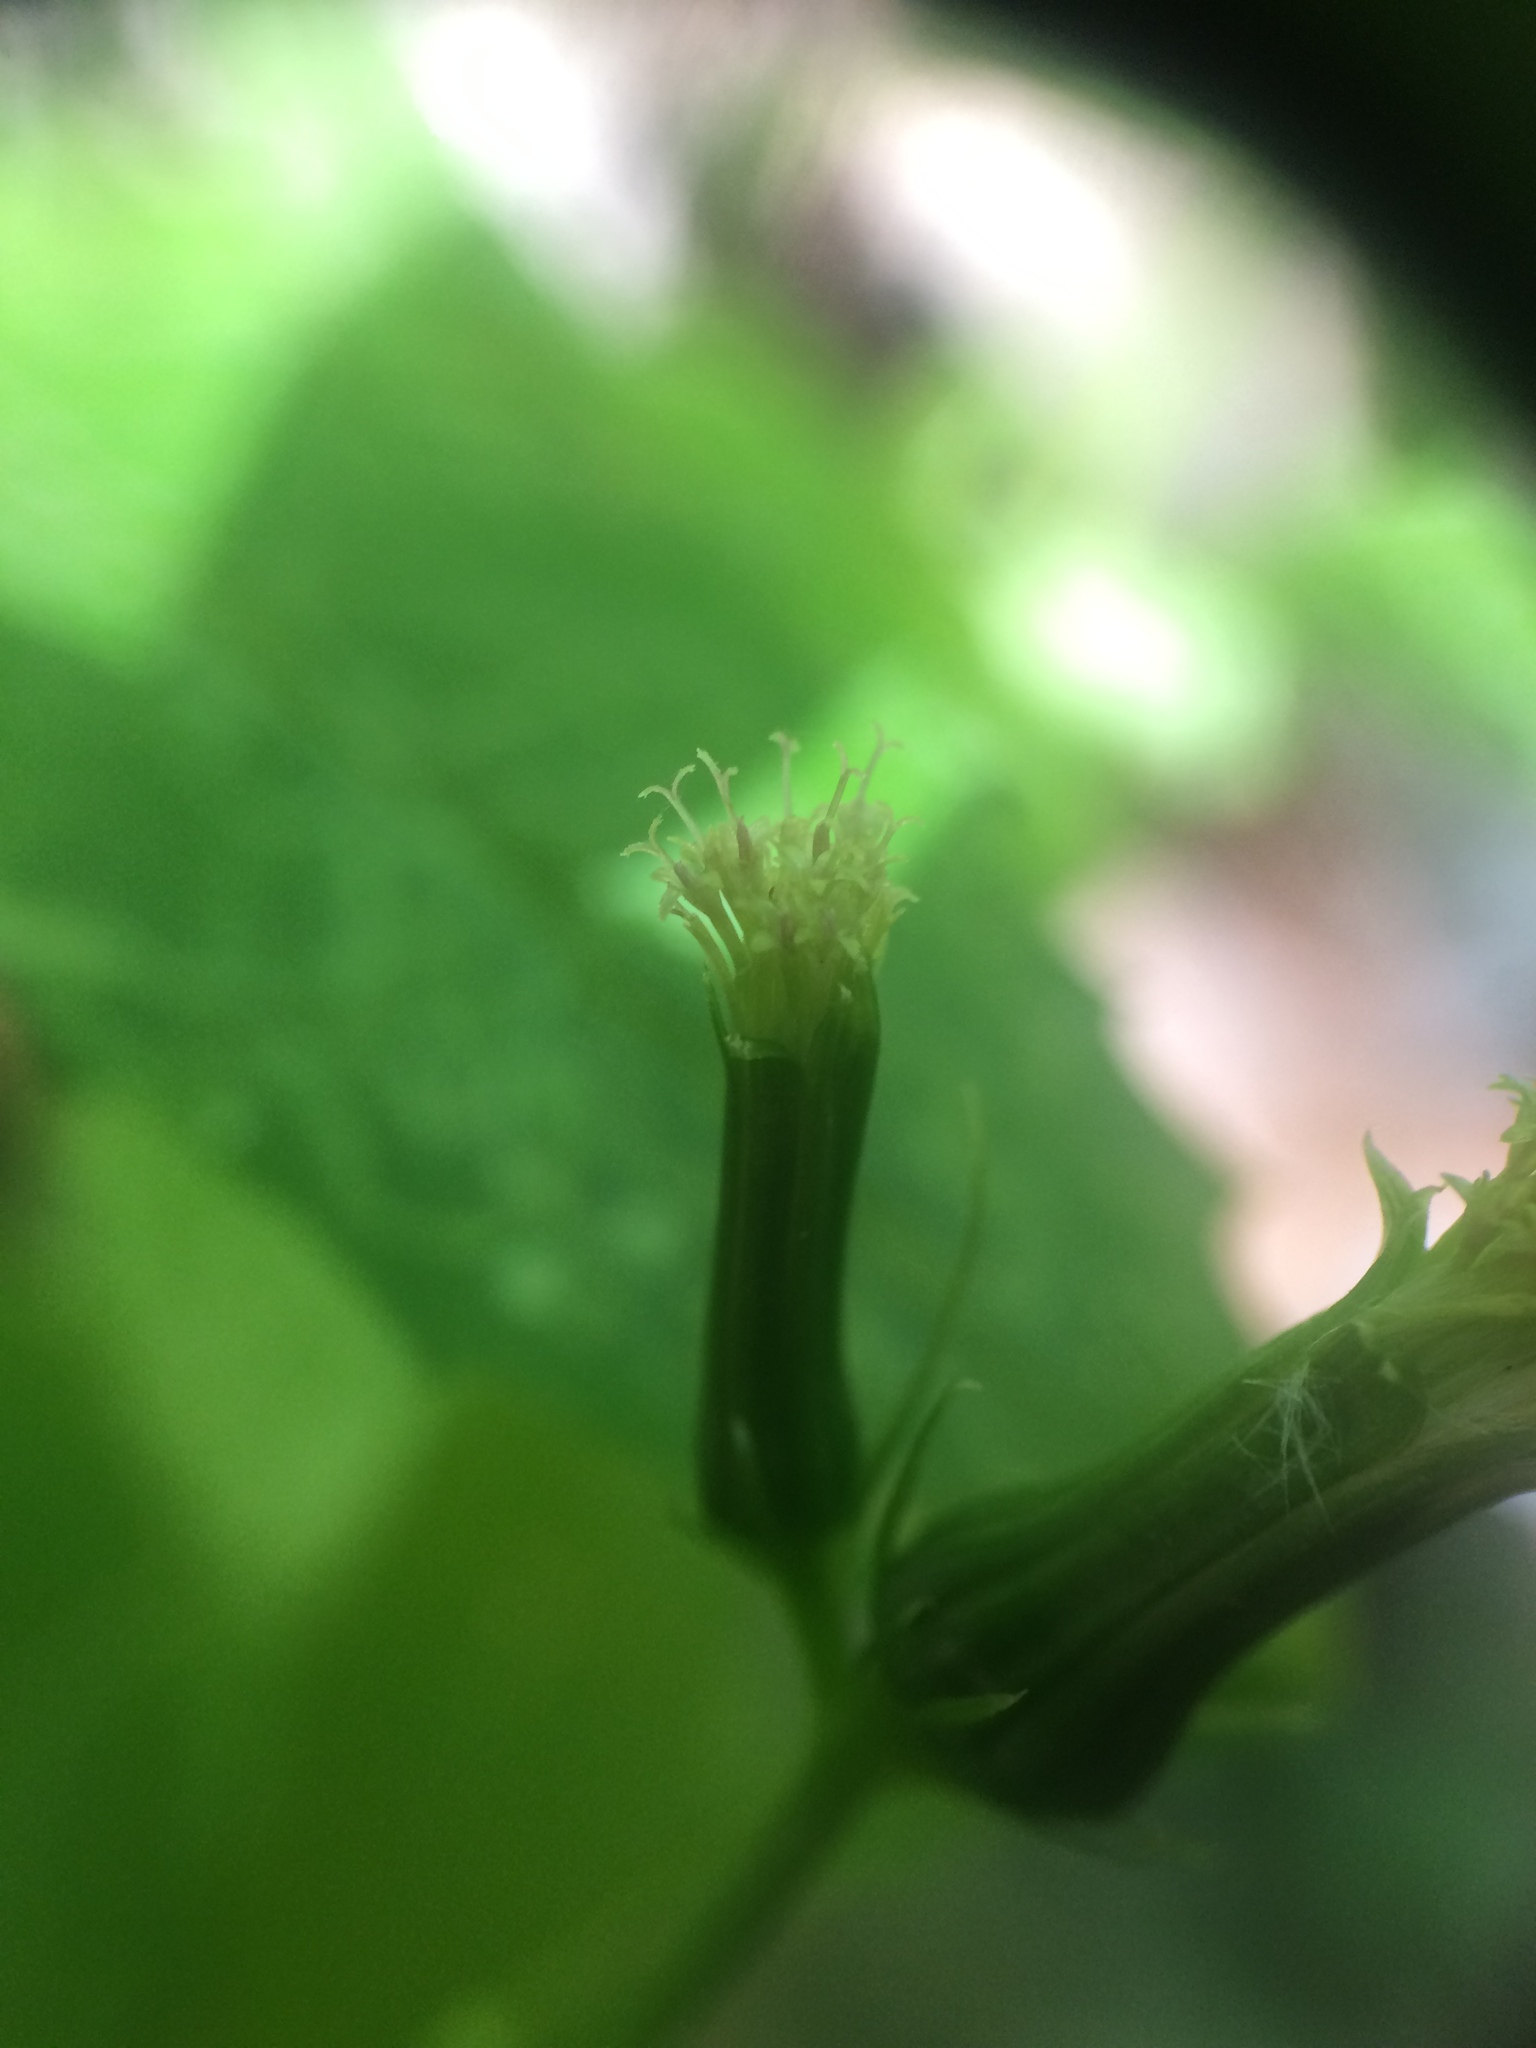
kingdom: Plantae
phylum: Tracheophyta
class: Magnoliopsida
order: Asterales
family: Asteraceae
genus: Erechtites
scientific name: Erechtites hieraciifolius
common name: American burnweed
